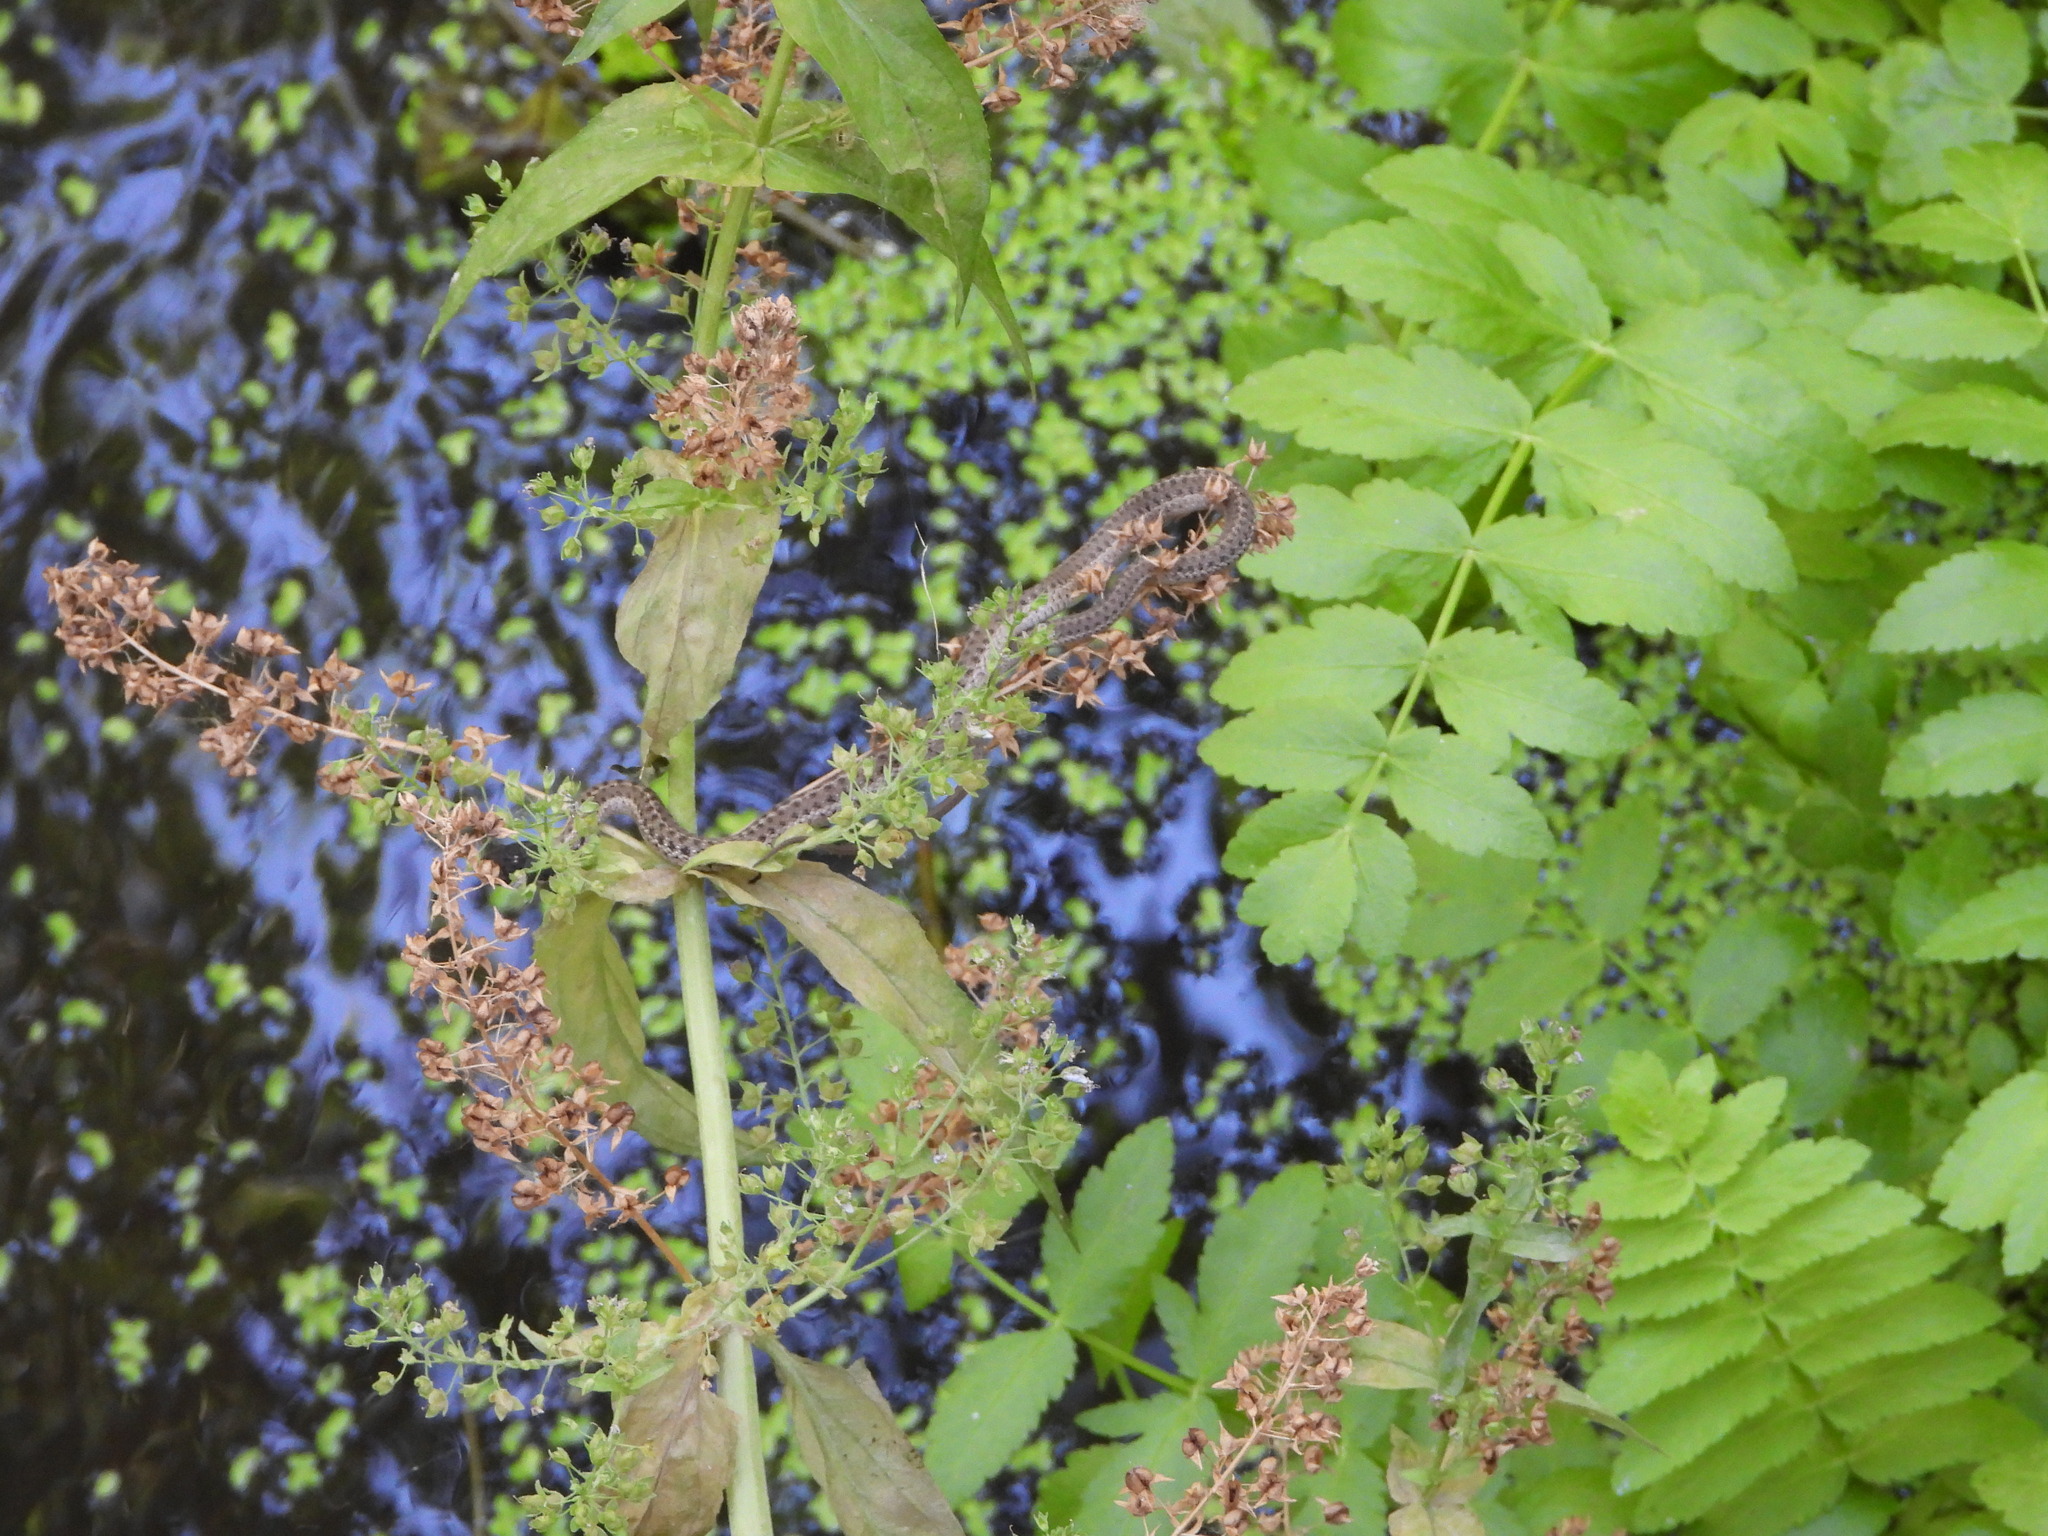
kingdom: Animalia
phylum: Chordata
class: Squamata
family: Colubridae
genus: Thamnophis
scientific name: Thamnophis elegans
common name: Western terrestrial garter snake
